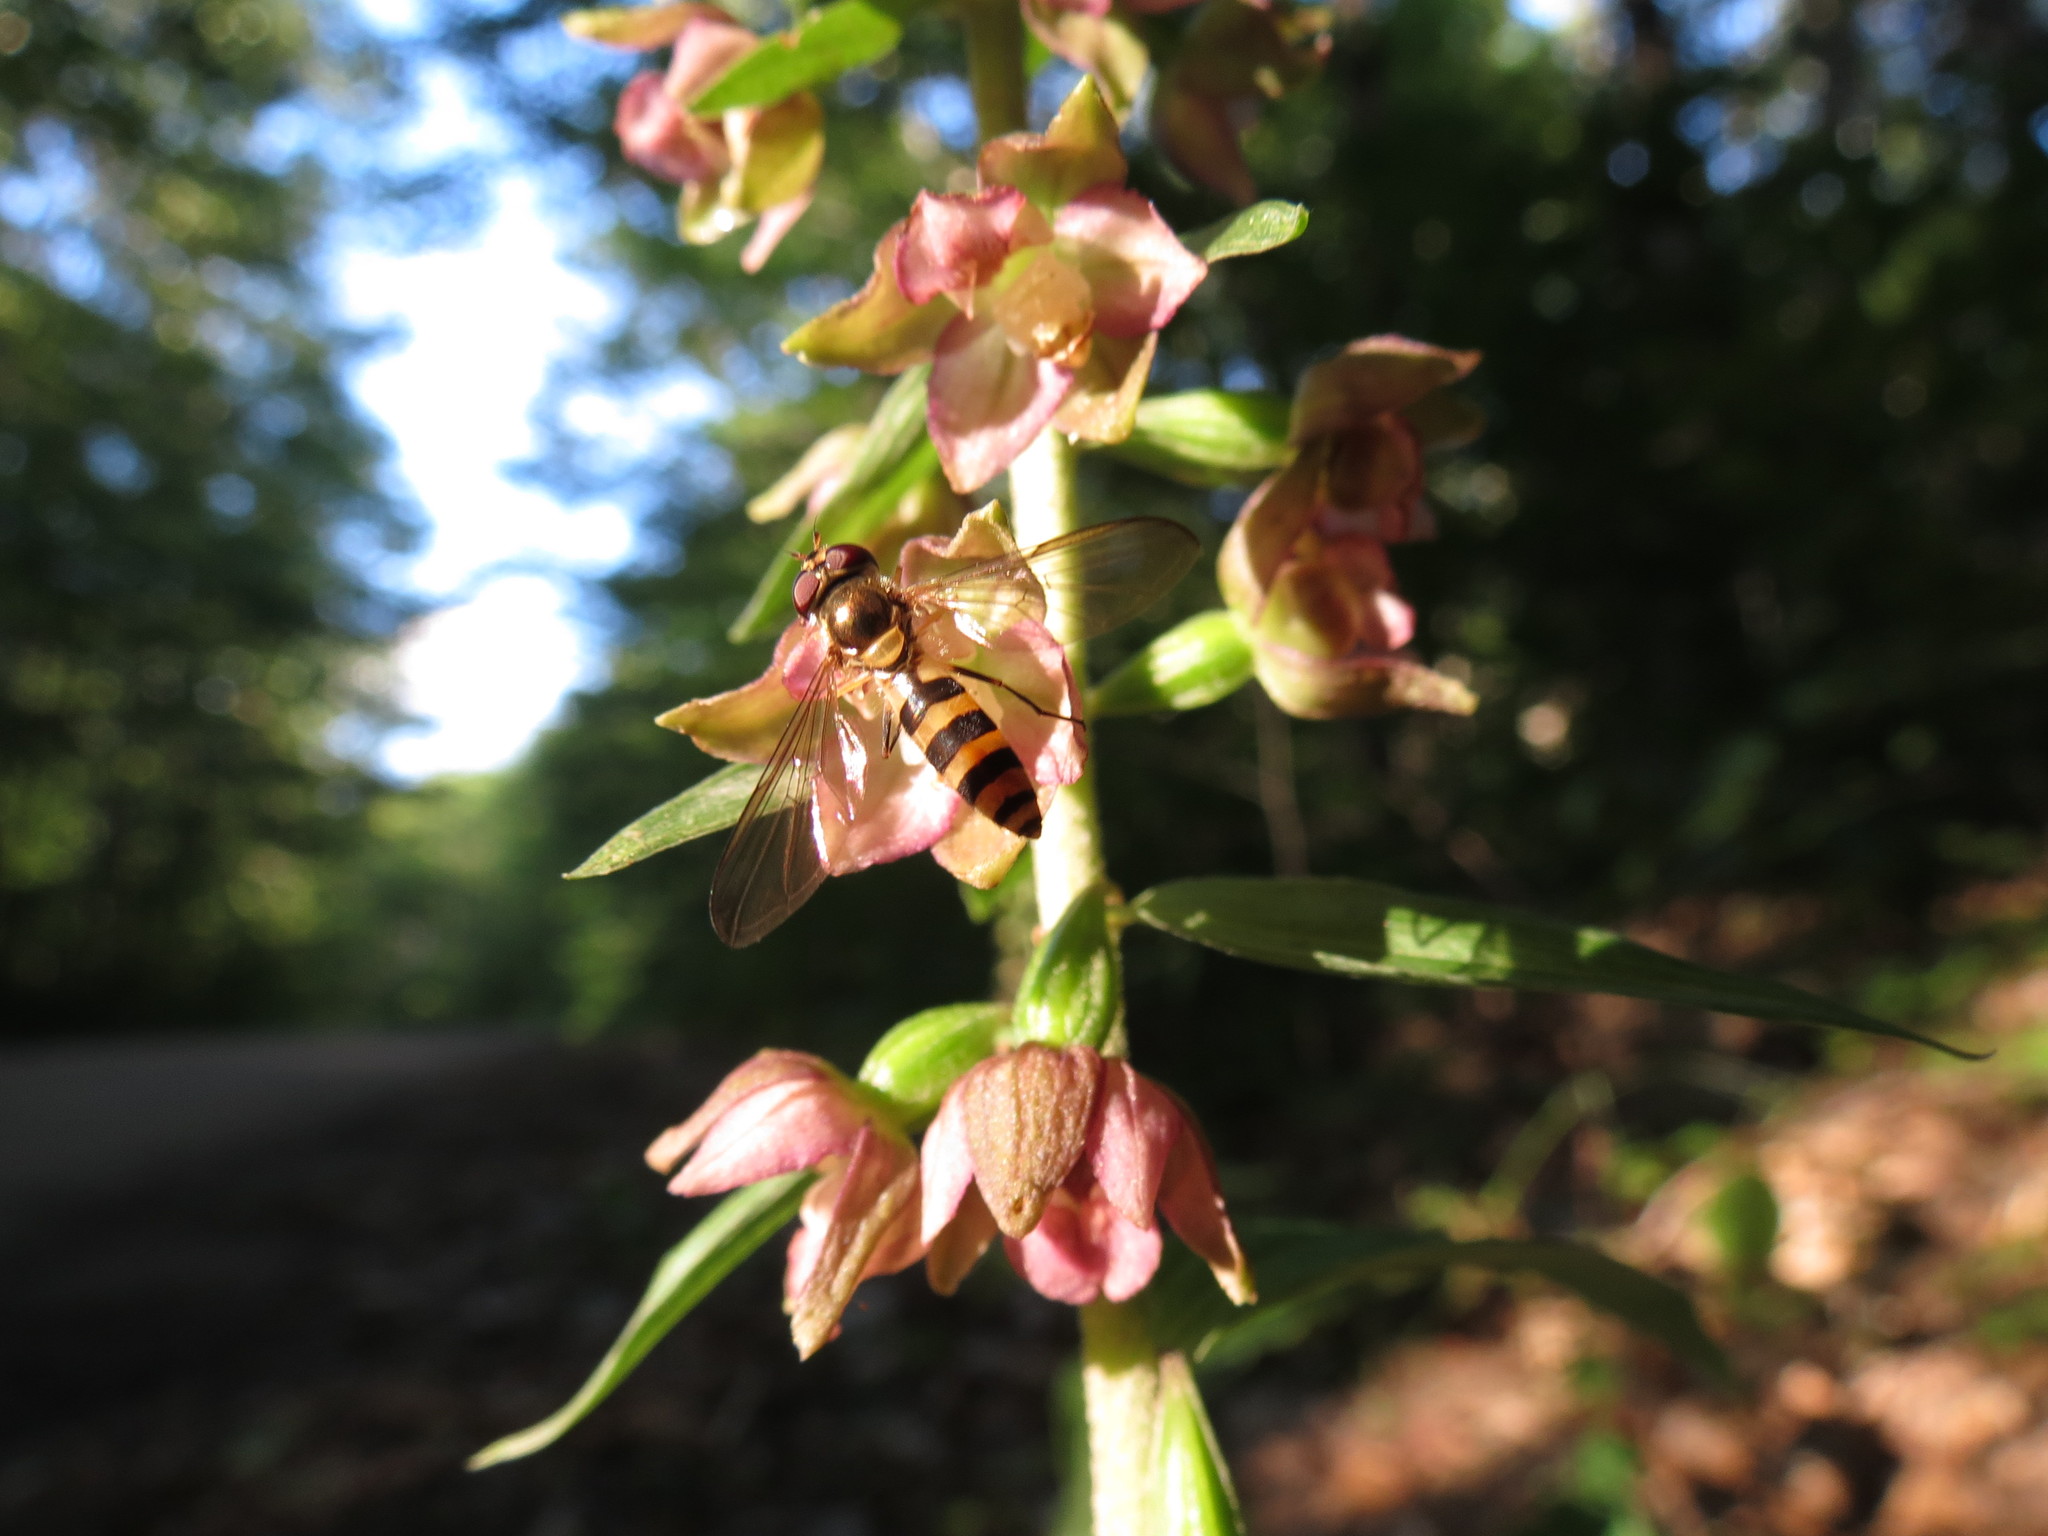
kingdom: Animalia
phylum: Arthropoda
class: Insecta
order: Diptera
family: Syrphidae
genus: Meliscaeva
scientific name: Meliscaeva cinctella
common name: American thintail fly
